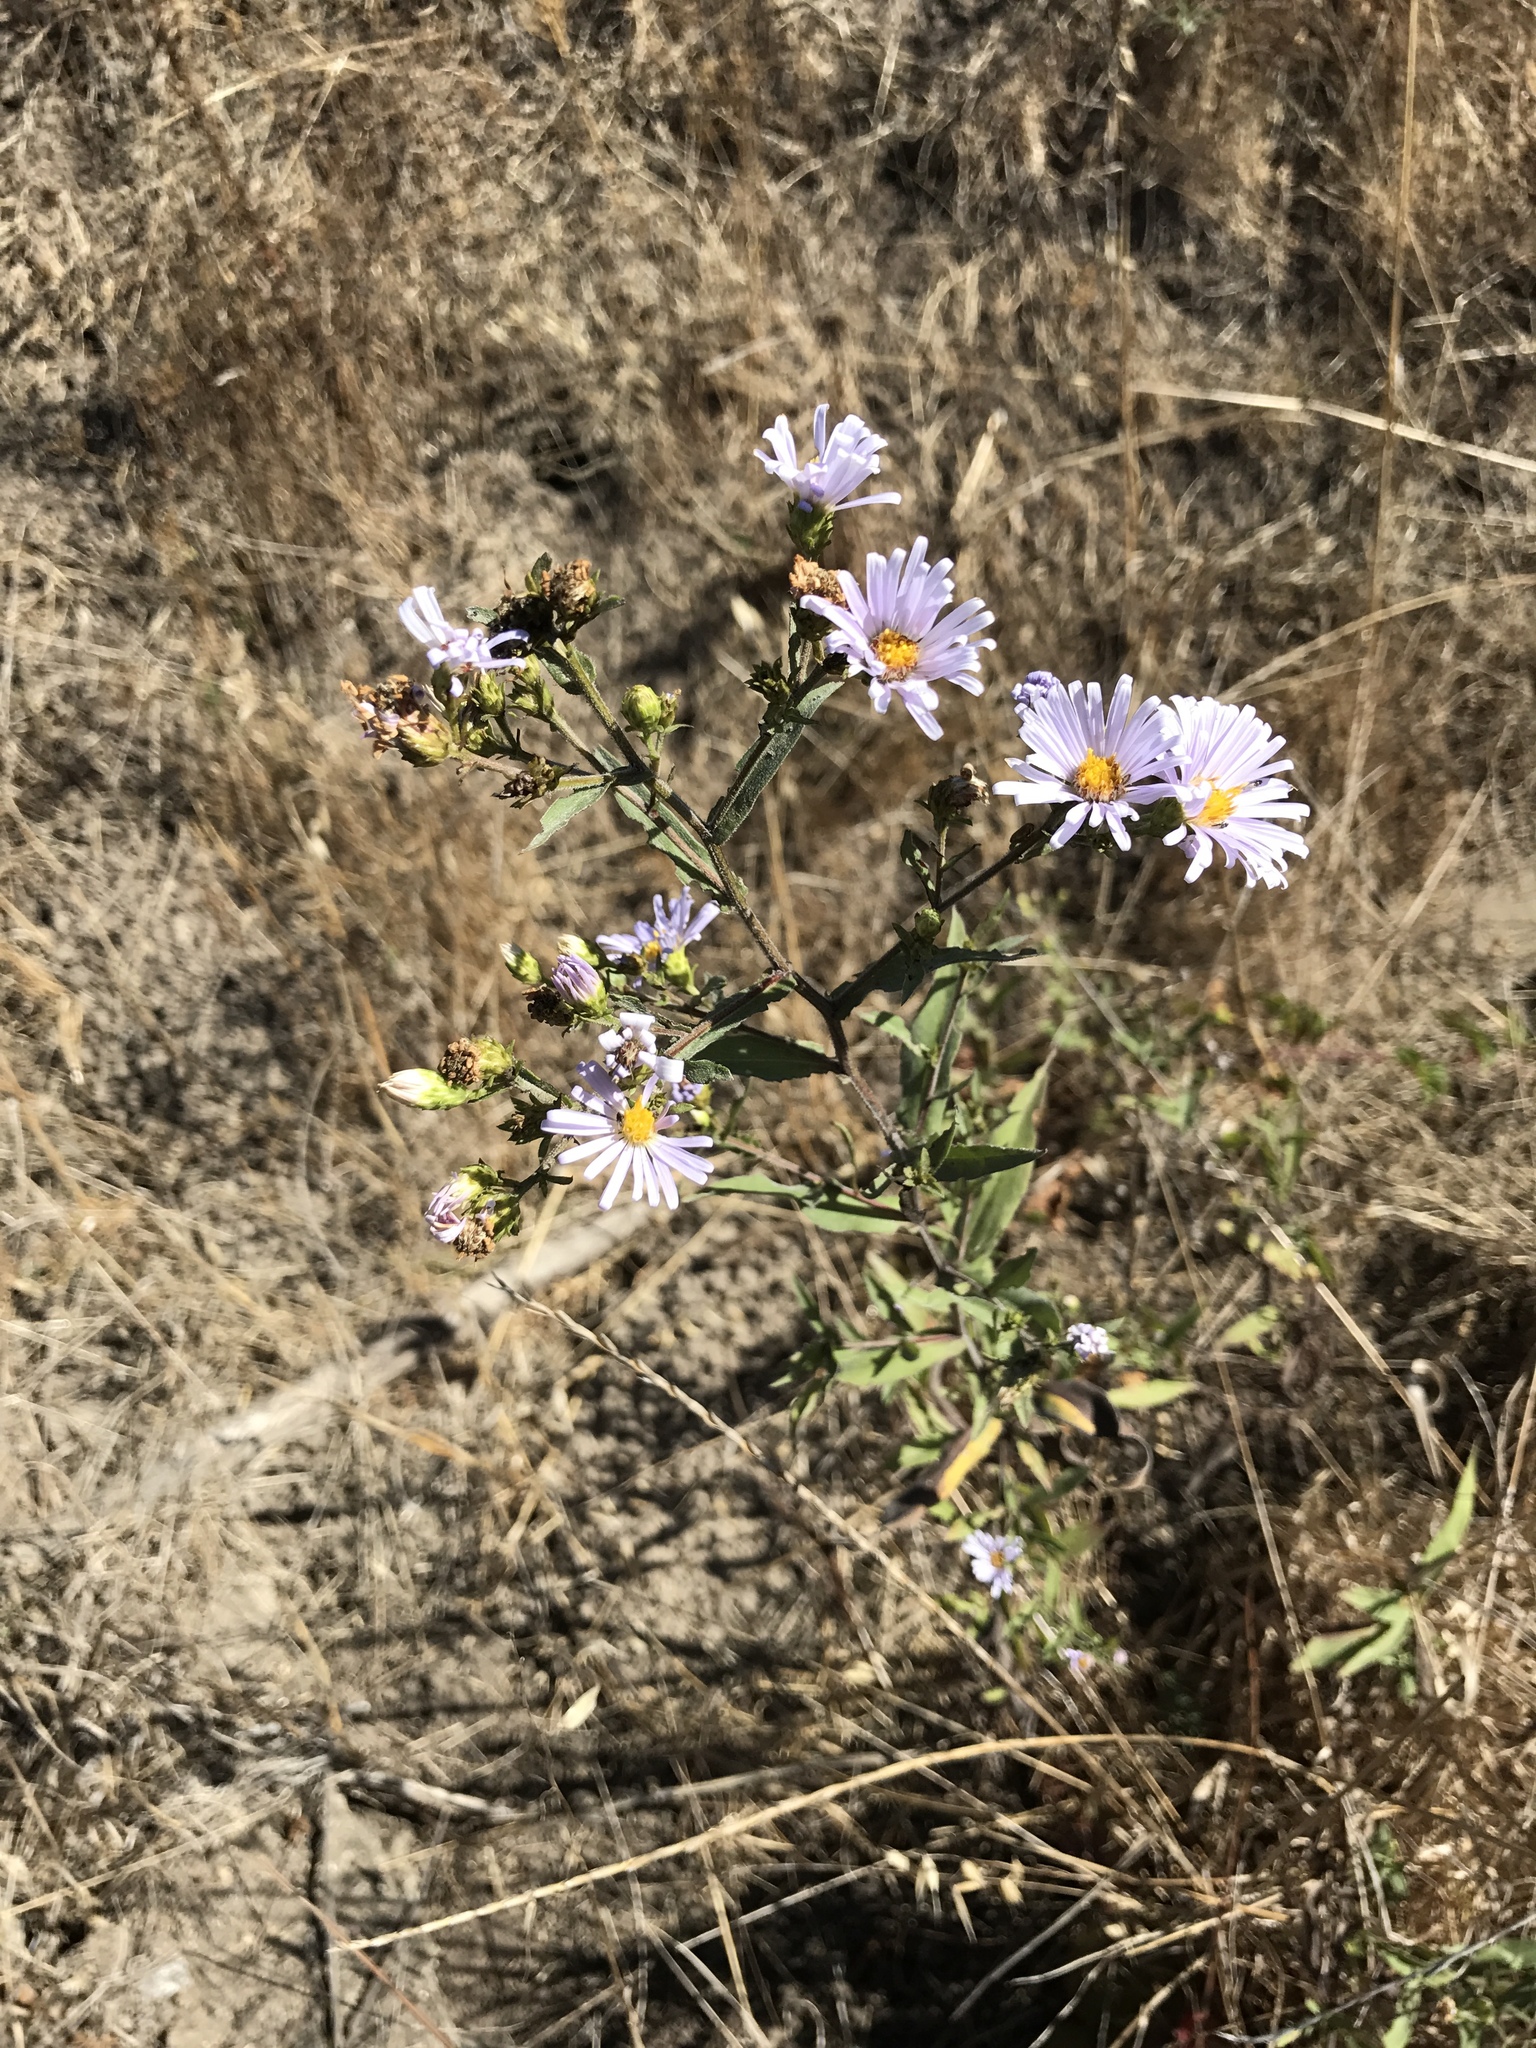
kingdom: Plantae
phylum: Tracheophyta
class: Magnoliopsida
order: Asterales
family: Asteraceae
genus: Symphyotrichum
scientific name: Symphyotrichum chilense
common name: Pacific aster
